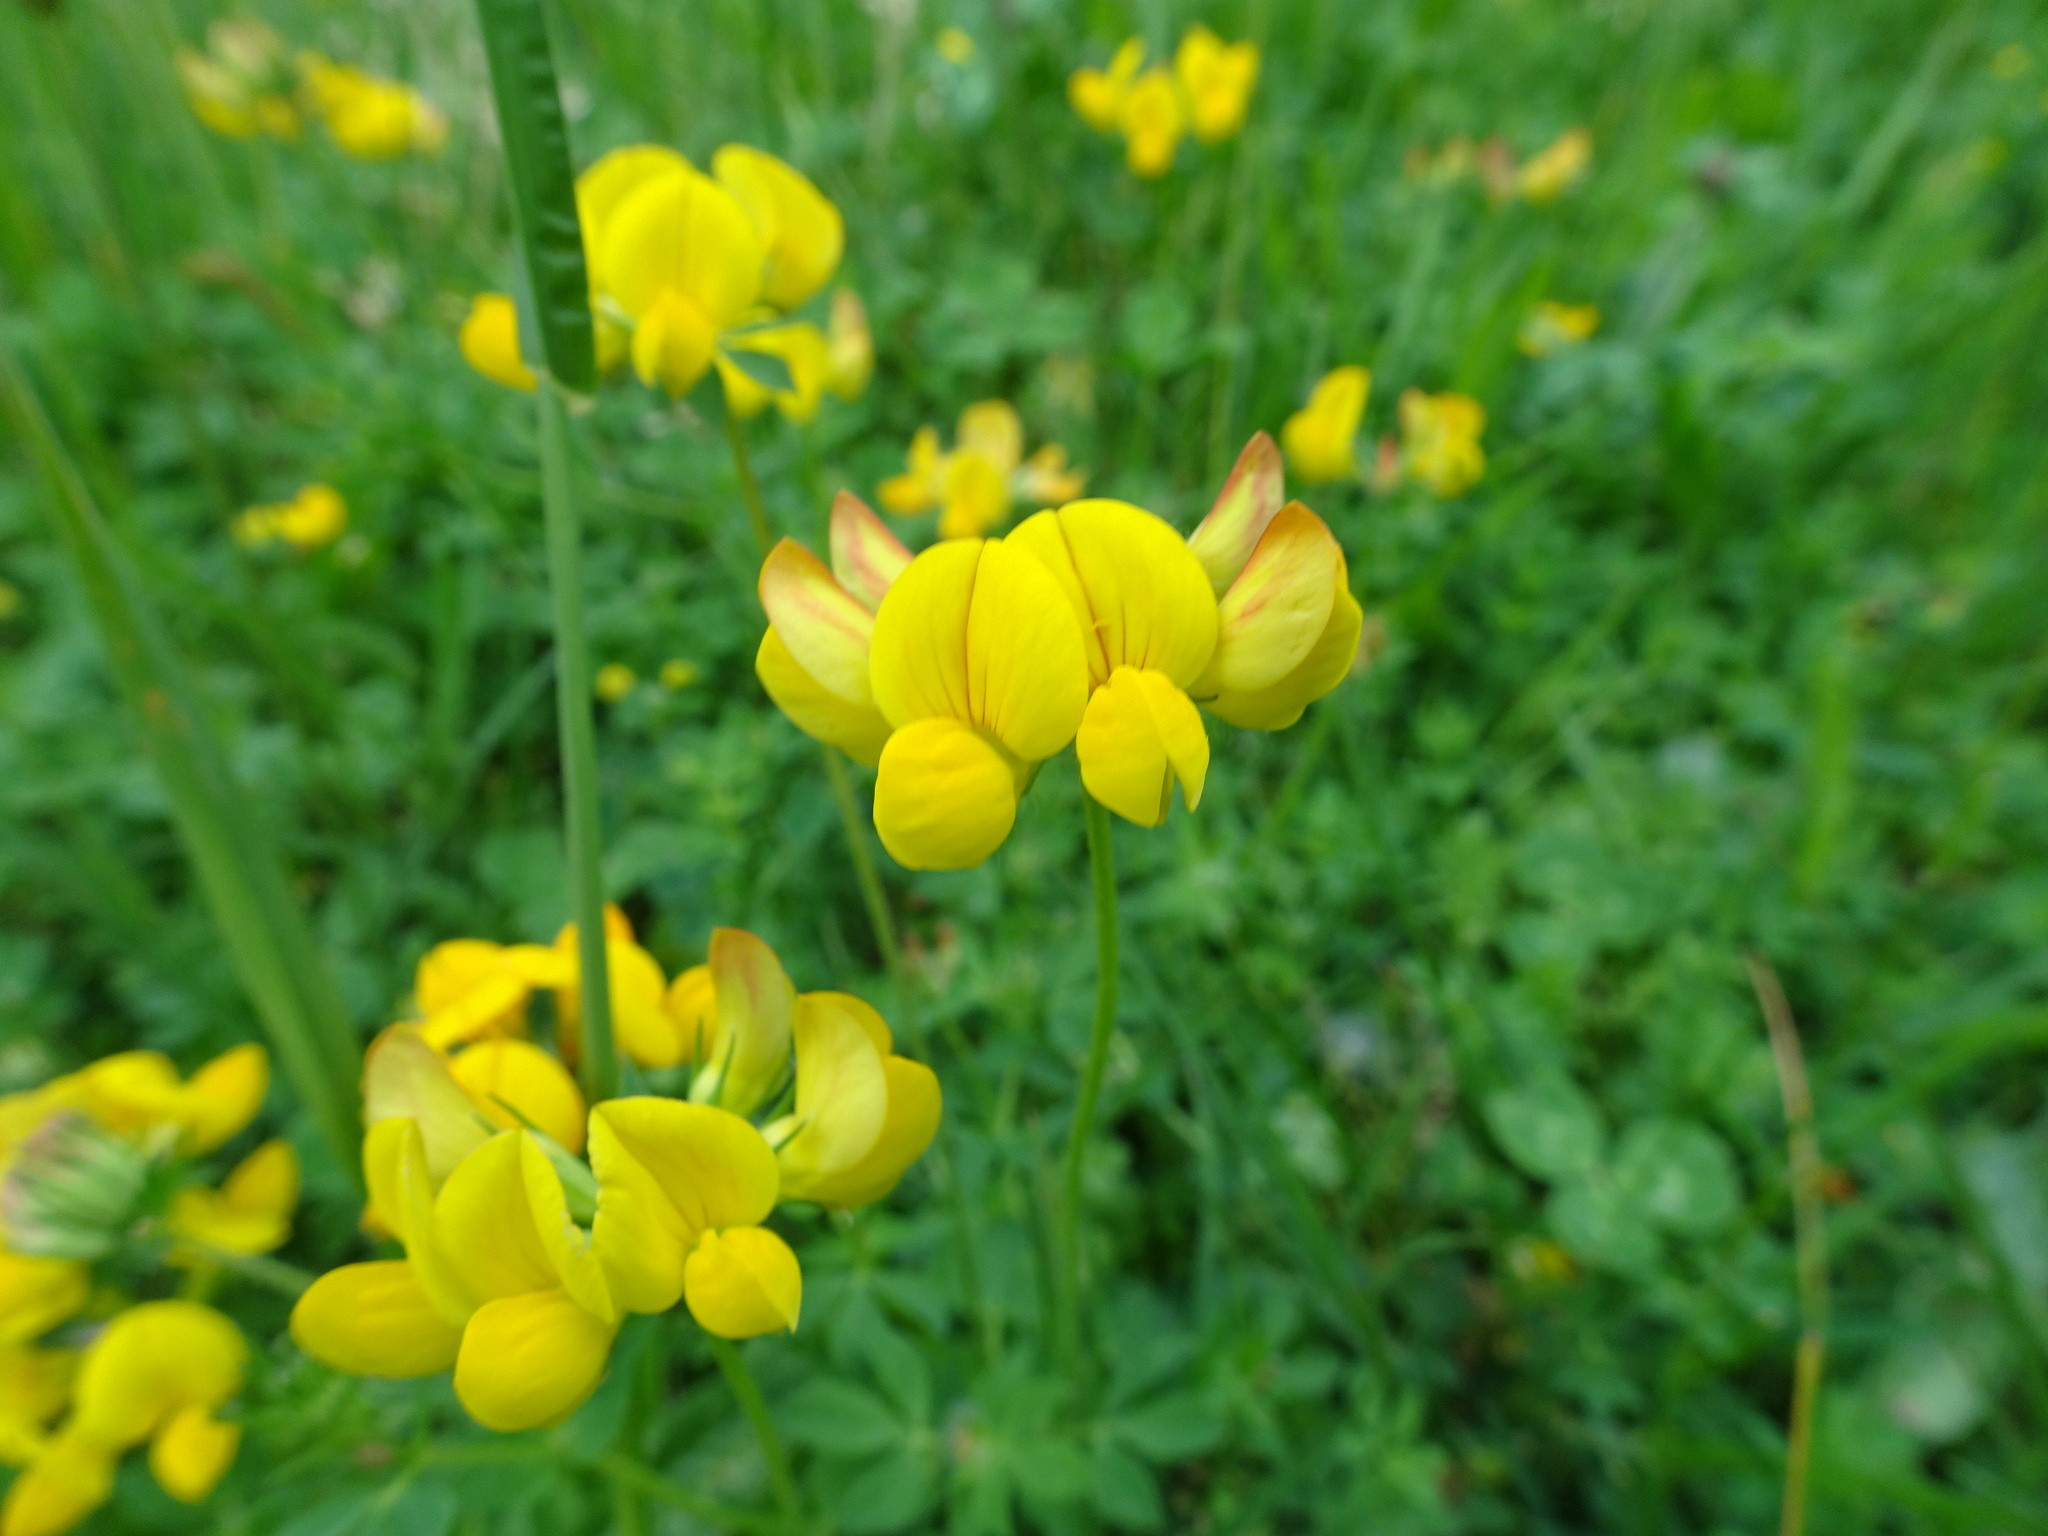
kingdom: Plantae
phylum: Tracheophyta
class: Magnoliopsida
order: Fabales
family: Fabaceae
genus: Lotus
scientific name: Lotus corniculatus
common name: Common bird's-foot-trefoil
